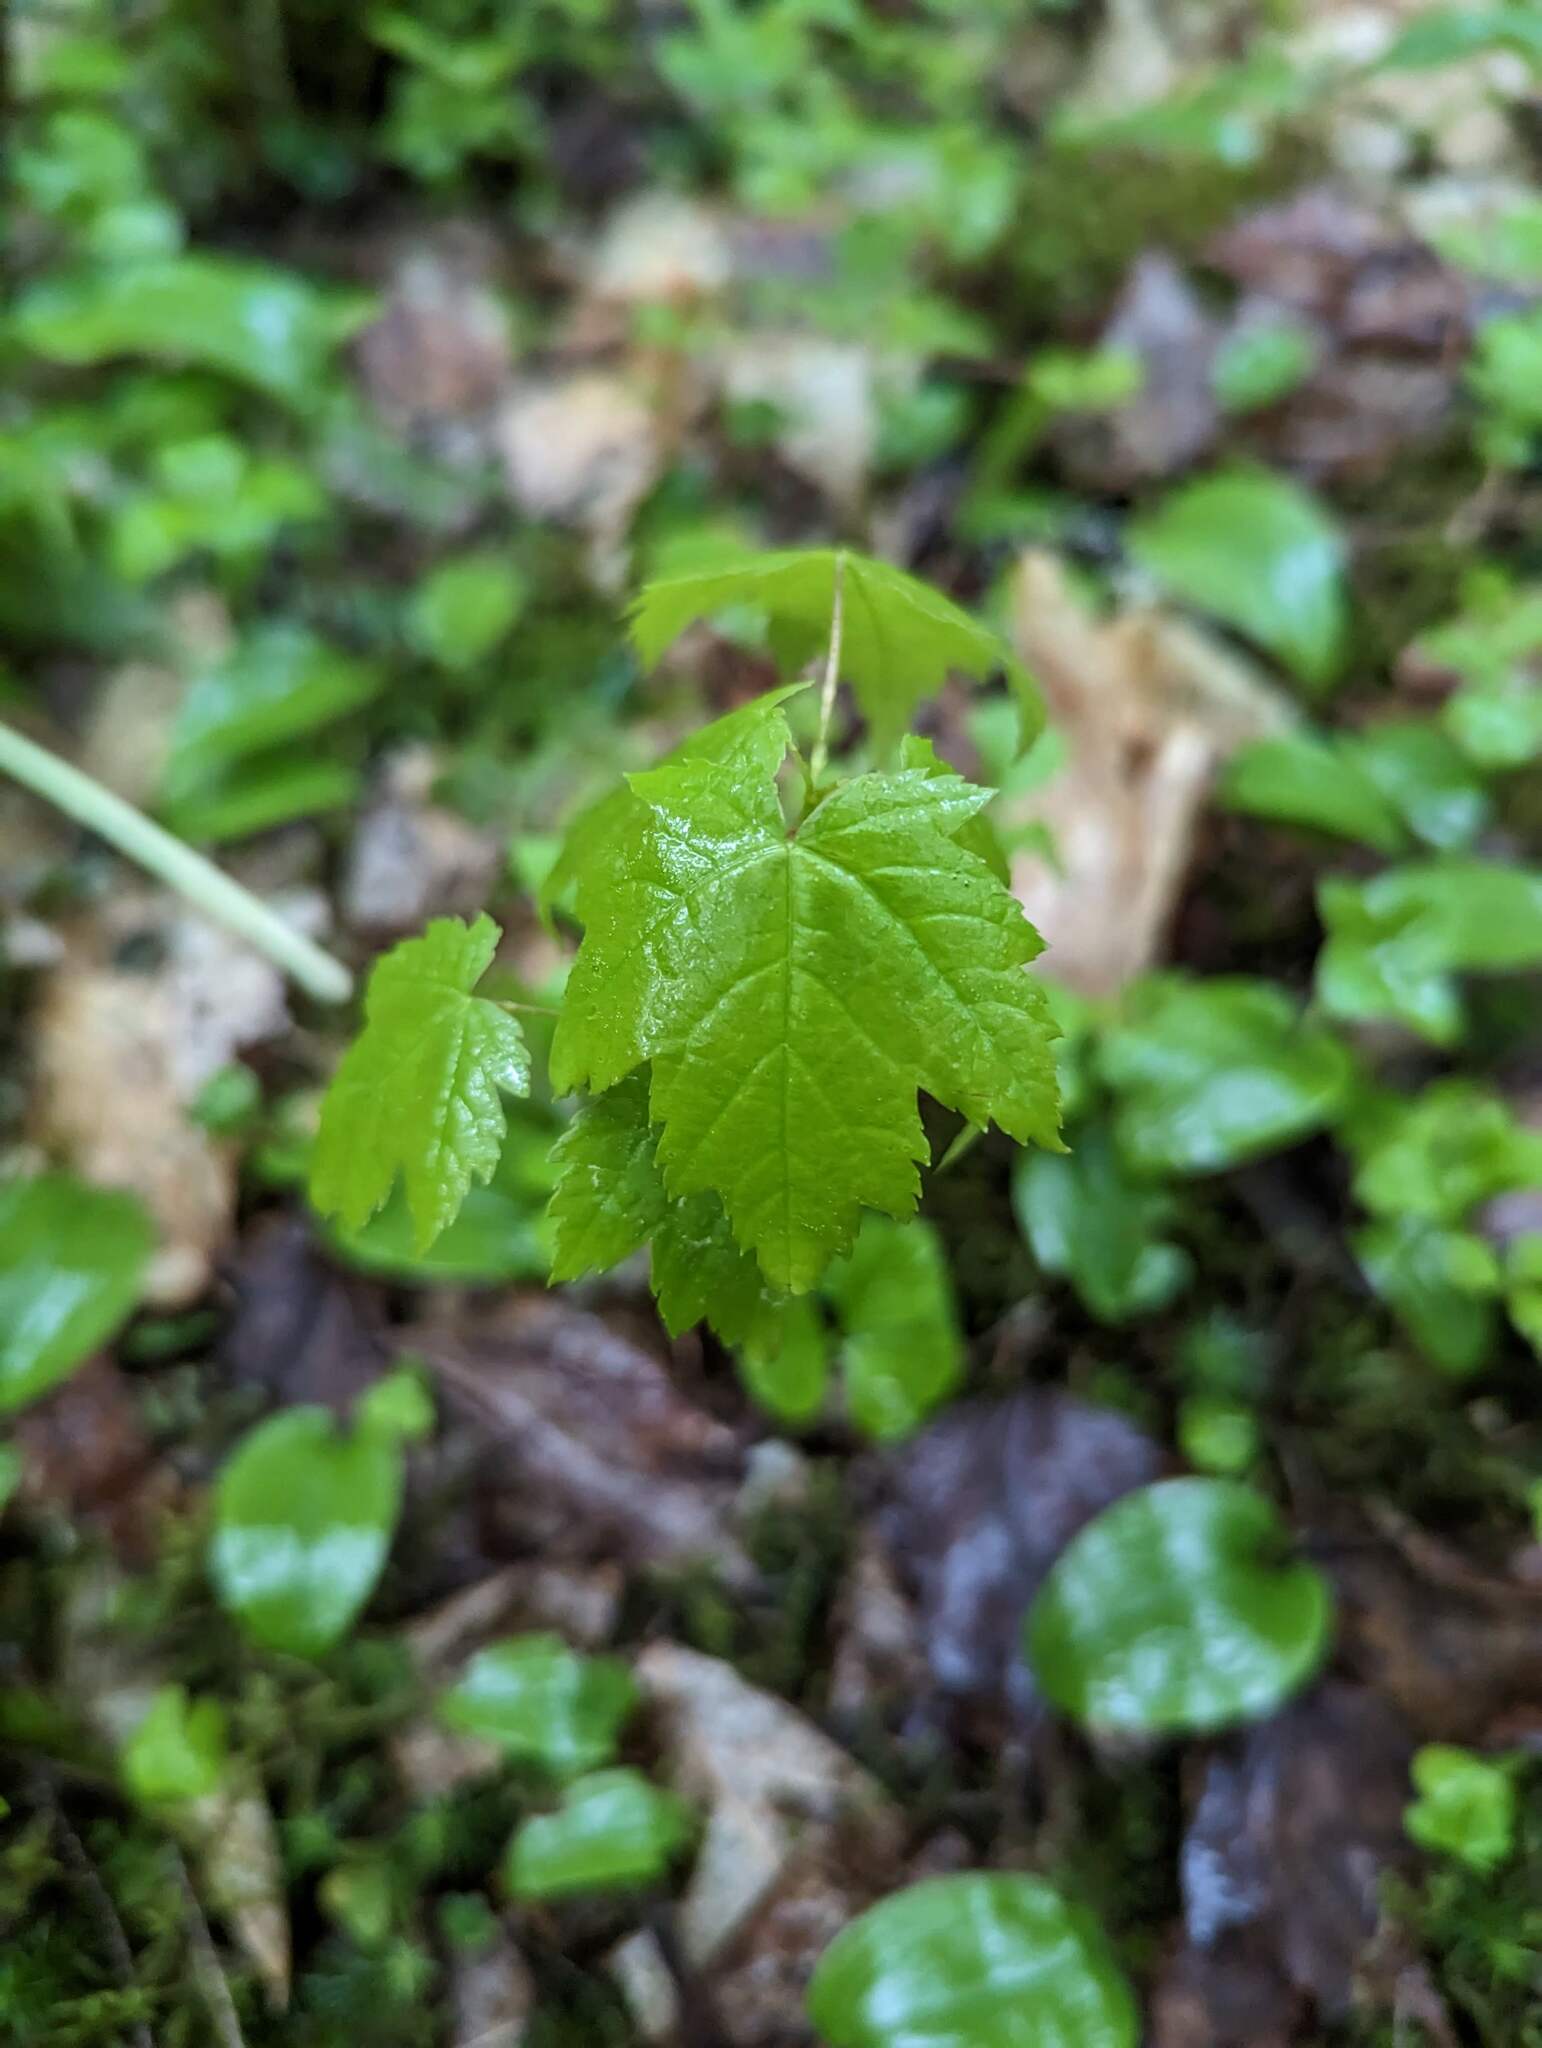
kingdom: Plantae
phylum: Tracheophyta
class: Magnoliopsida
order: Sapindales
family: Sapindaceae
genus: Acer
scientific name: Acer rubrum
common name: Red maple
